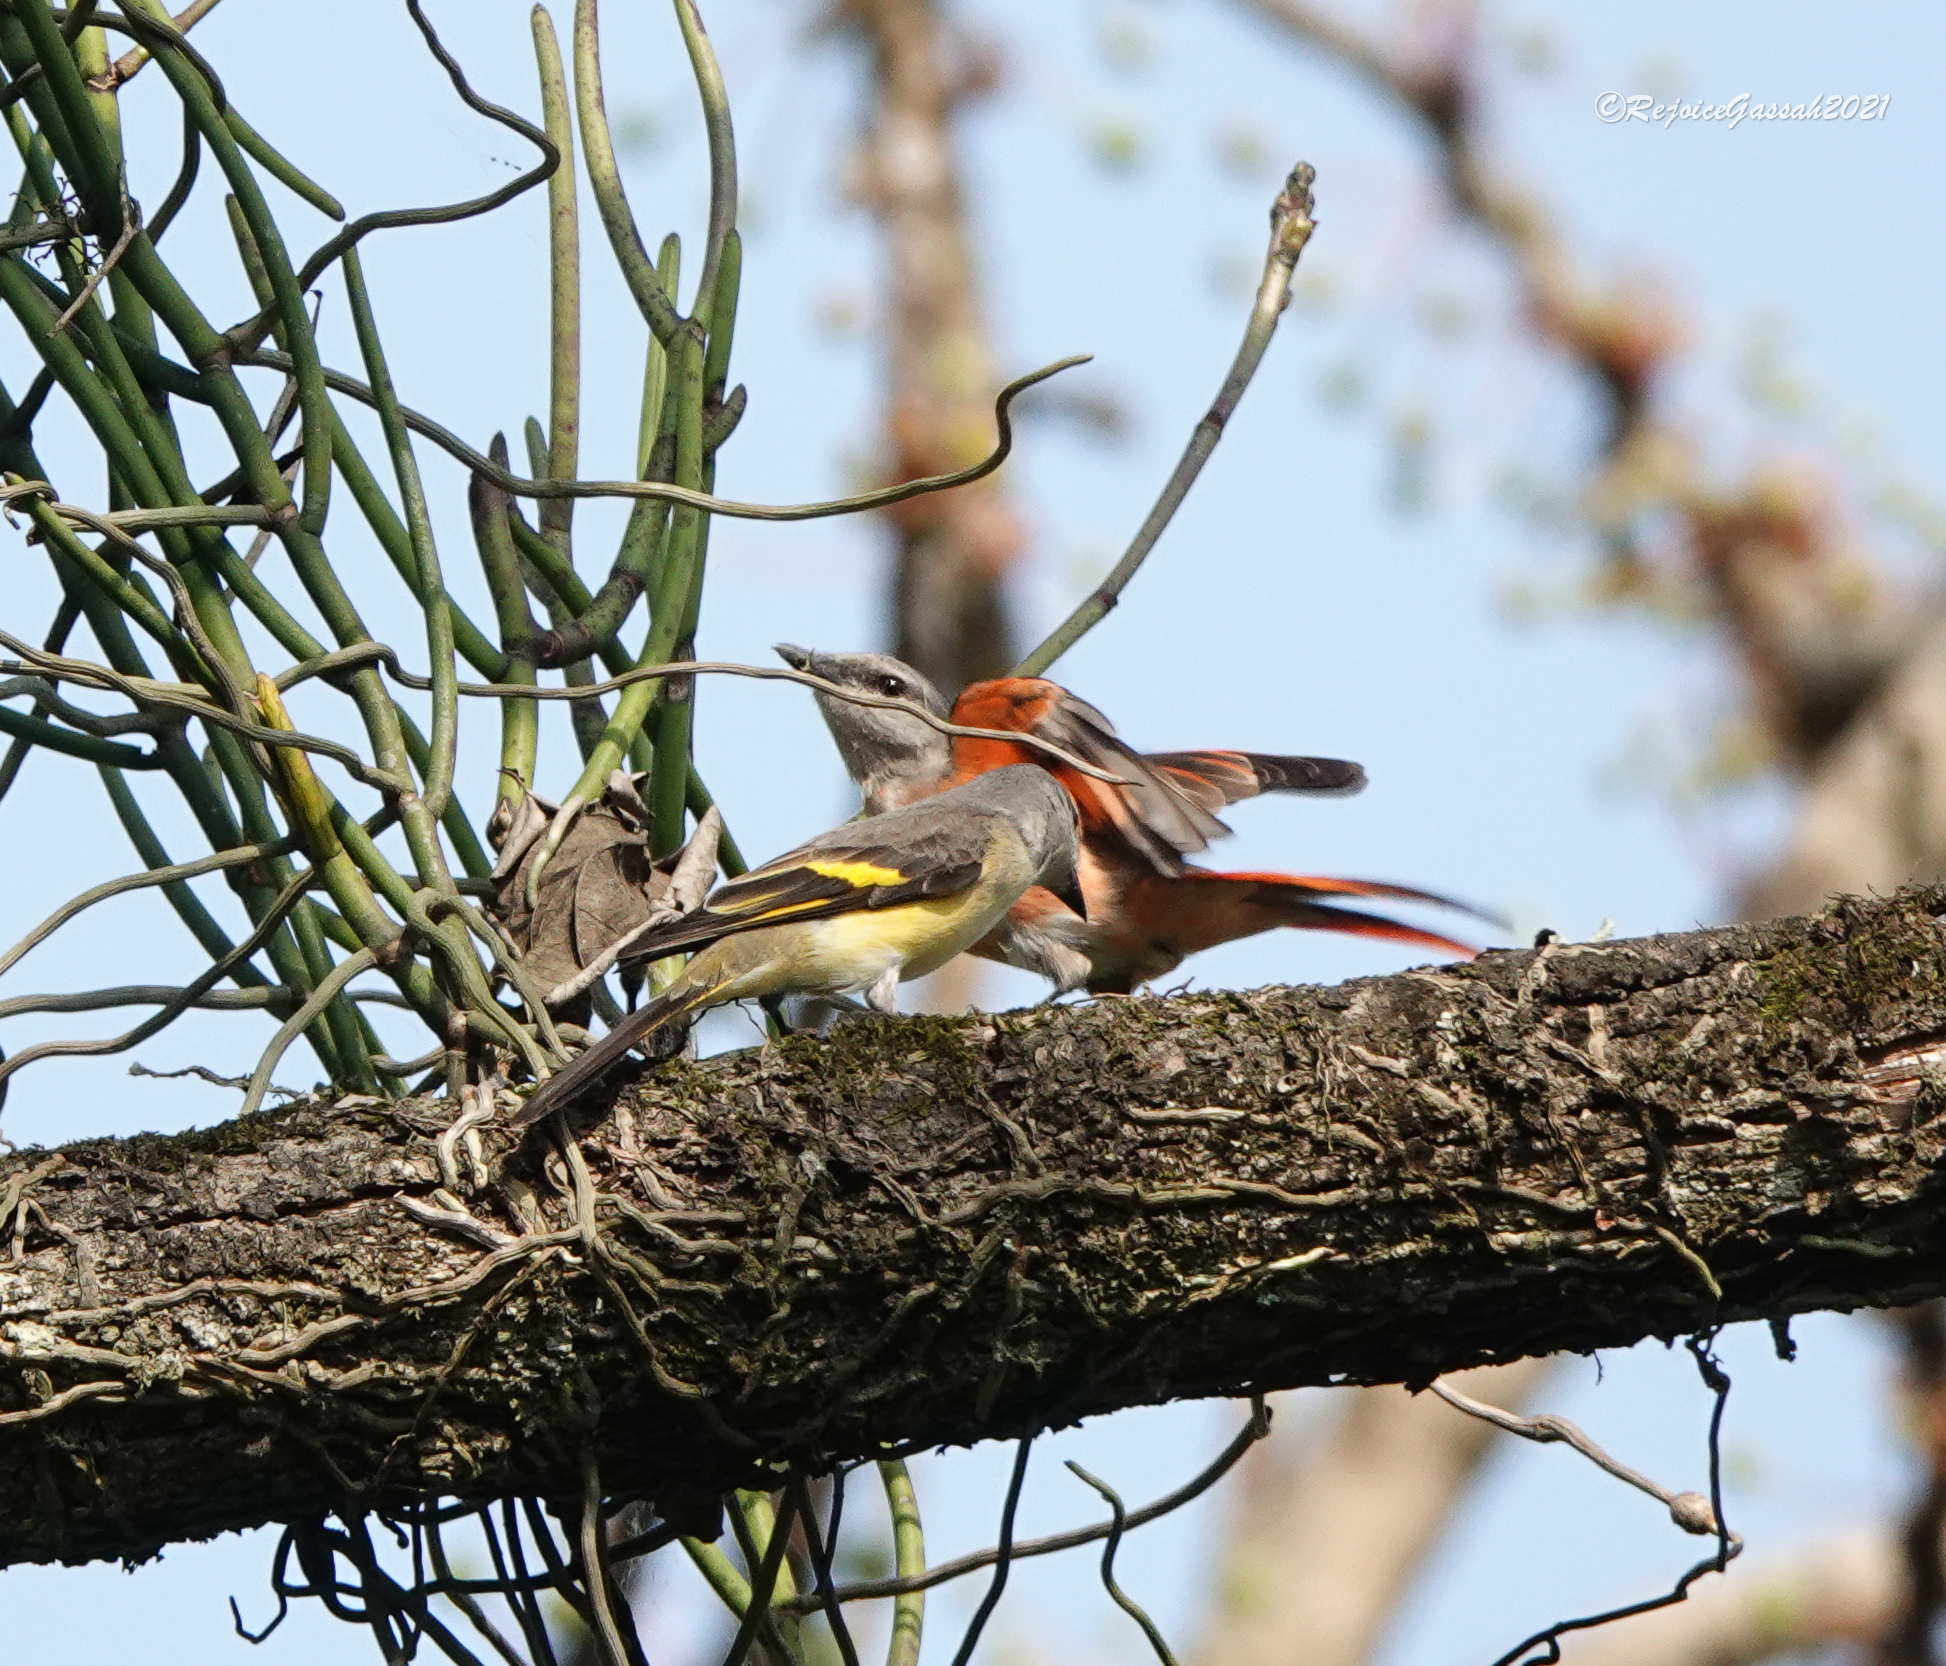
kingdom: Animalia
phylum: Chordata
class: Aves
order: Passeriformes
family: Campephagidae
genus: Pericrocotus
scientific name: Pericrocotus roseus
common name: Rosy minivet
